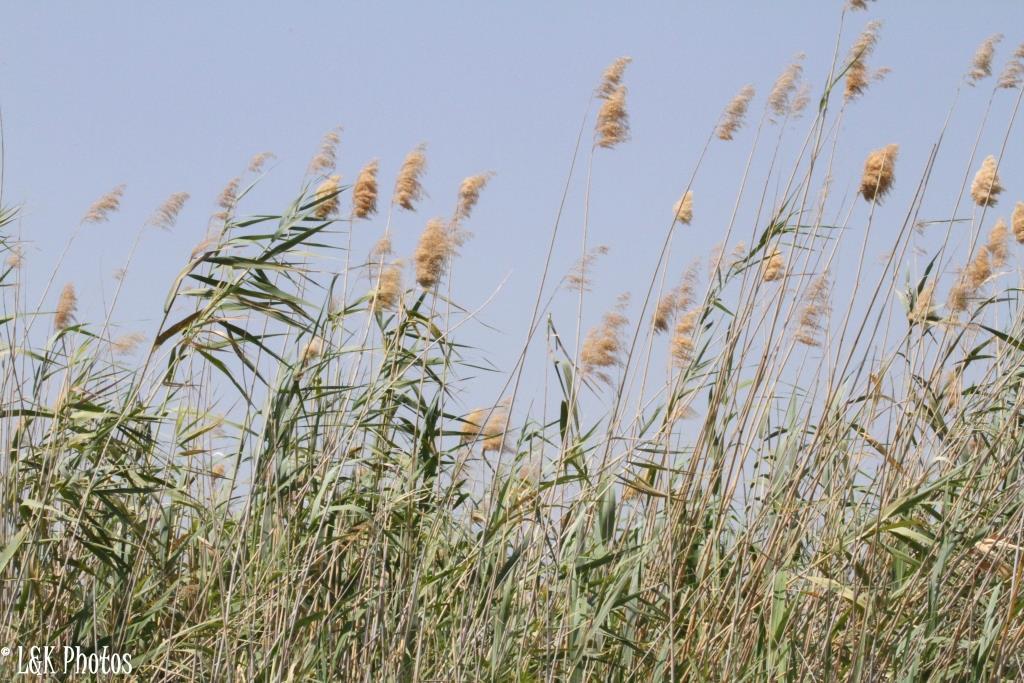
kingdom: Plantae
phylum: Tracheophyta
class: Liliopsida
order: Poales
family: Poaceae
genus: Phragmites
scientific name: Phragmites australis
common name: Common reed
